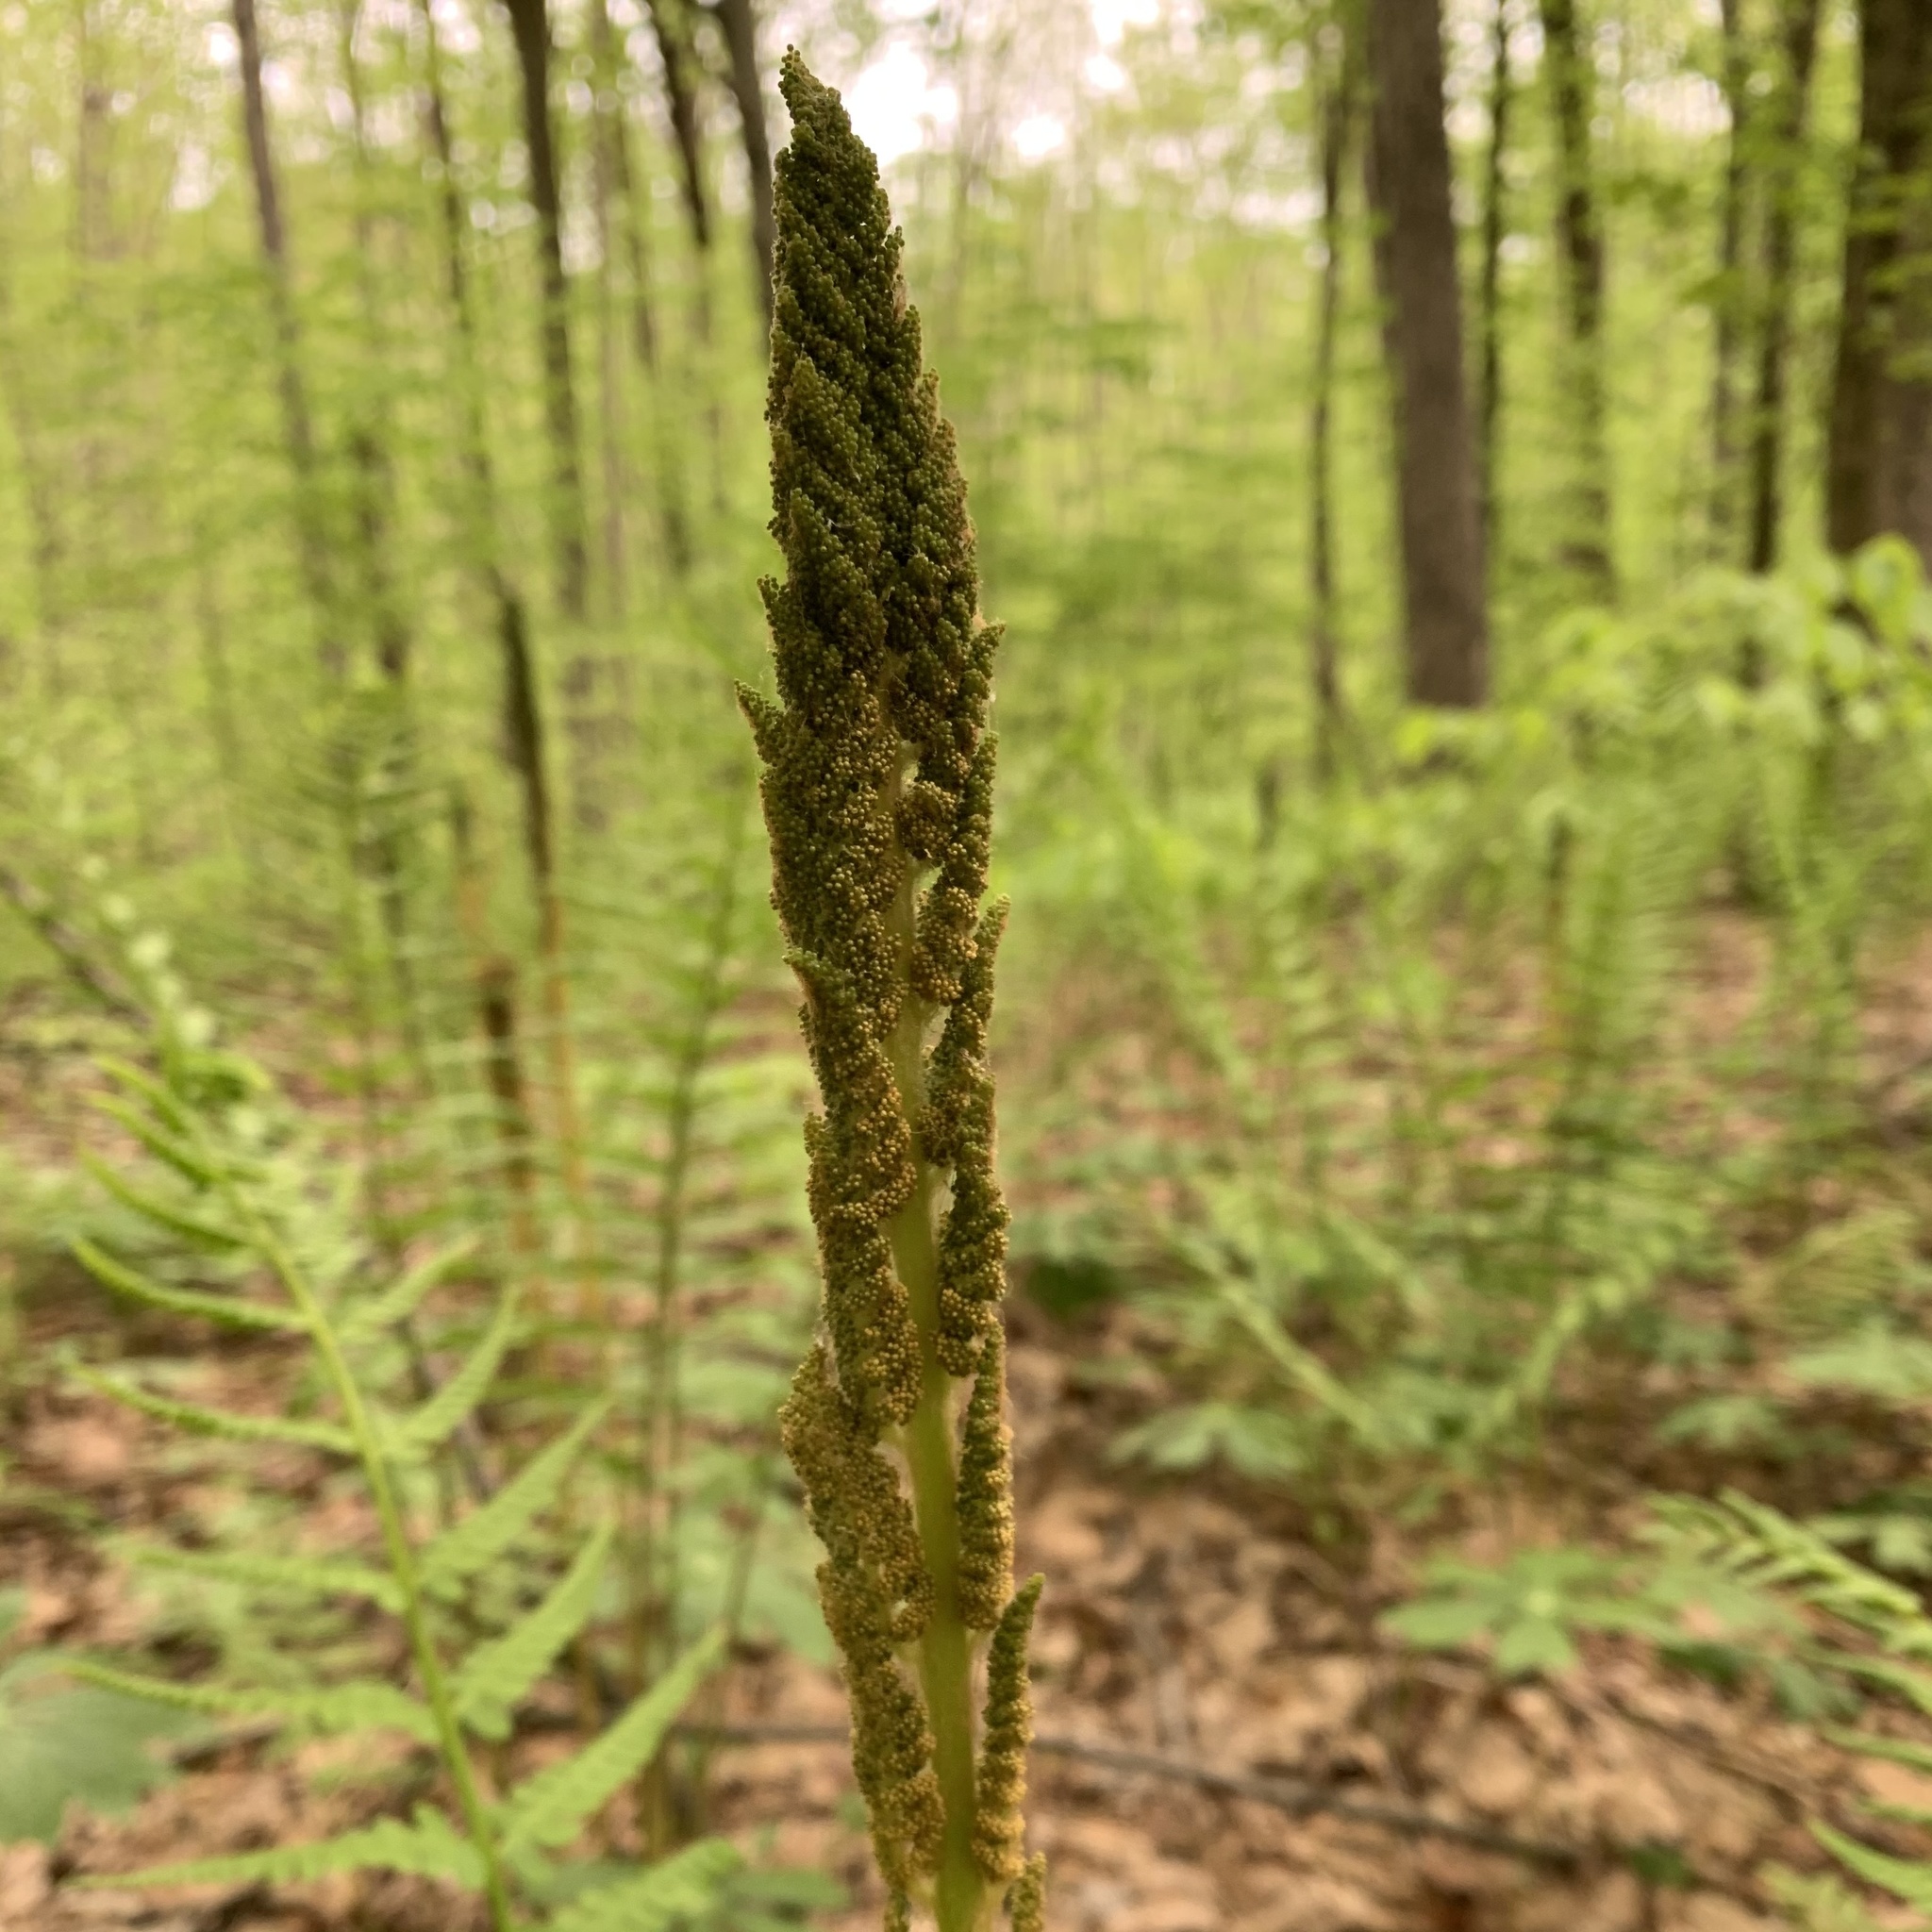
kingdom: Plantae
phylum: Tracheophyta
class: Polypodiopsida
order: Osmundales
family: Osmundaceae
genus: Osmundastrum
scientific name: Osmundastrum cinnamomeum
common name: Cinnamon fern
